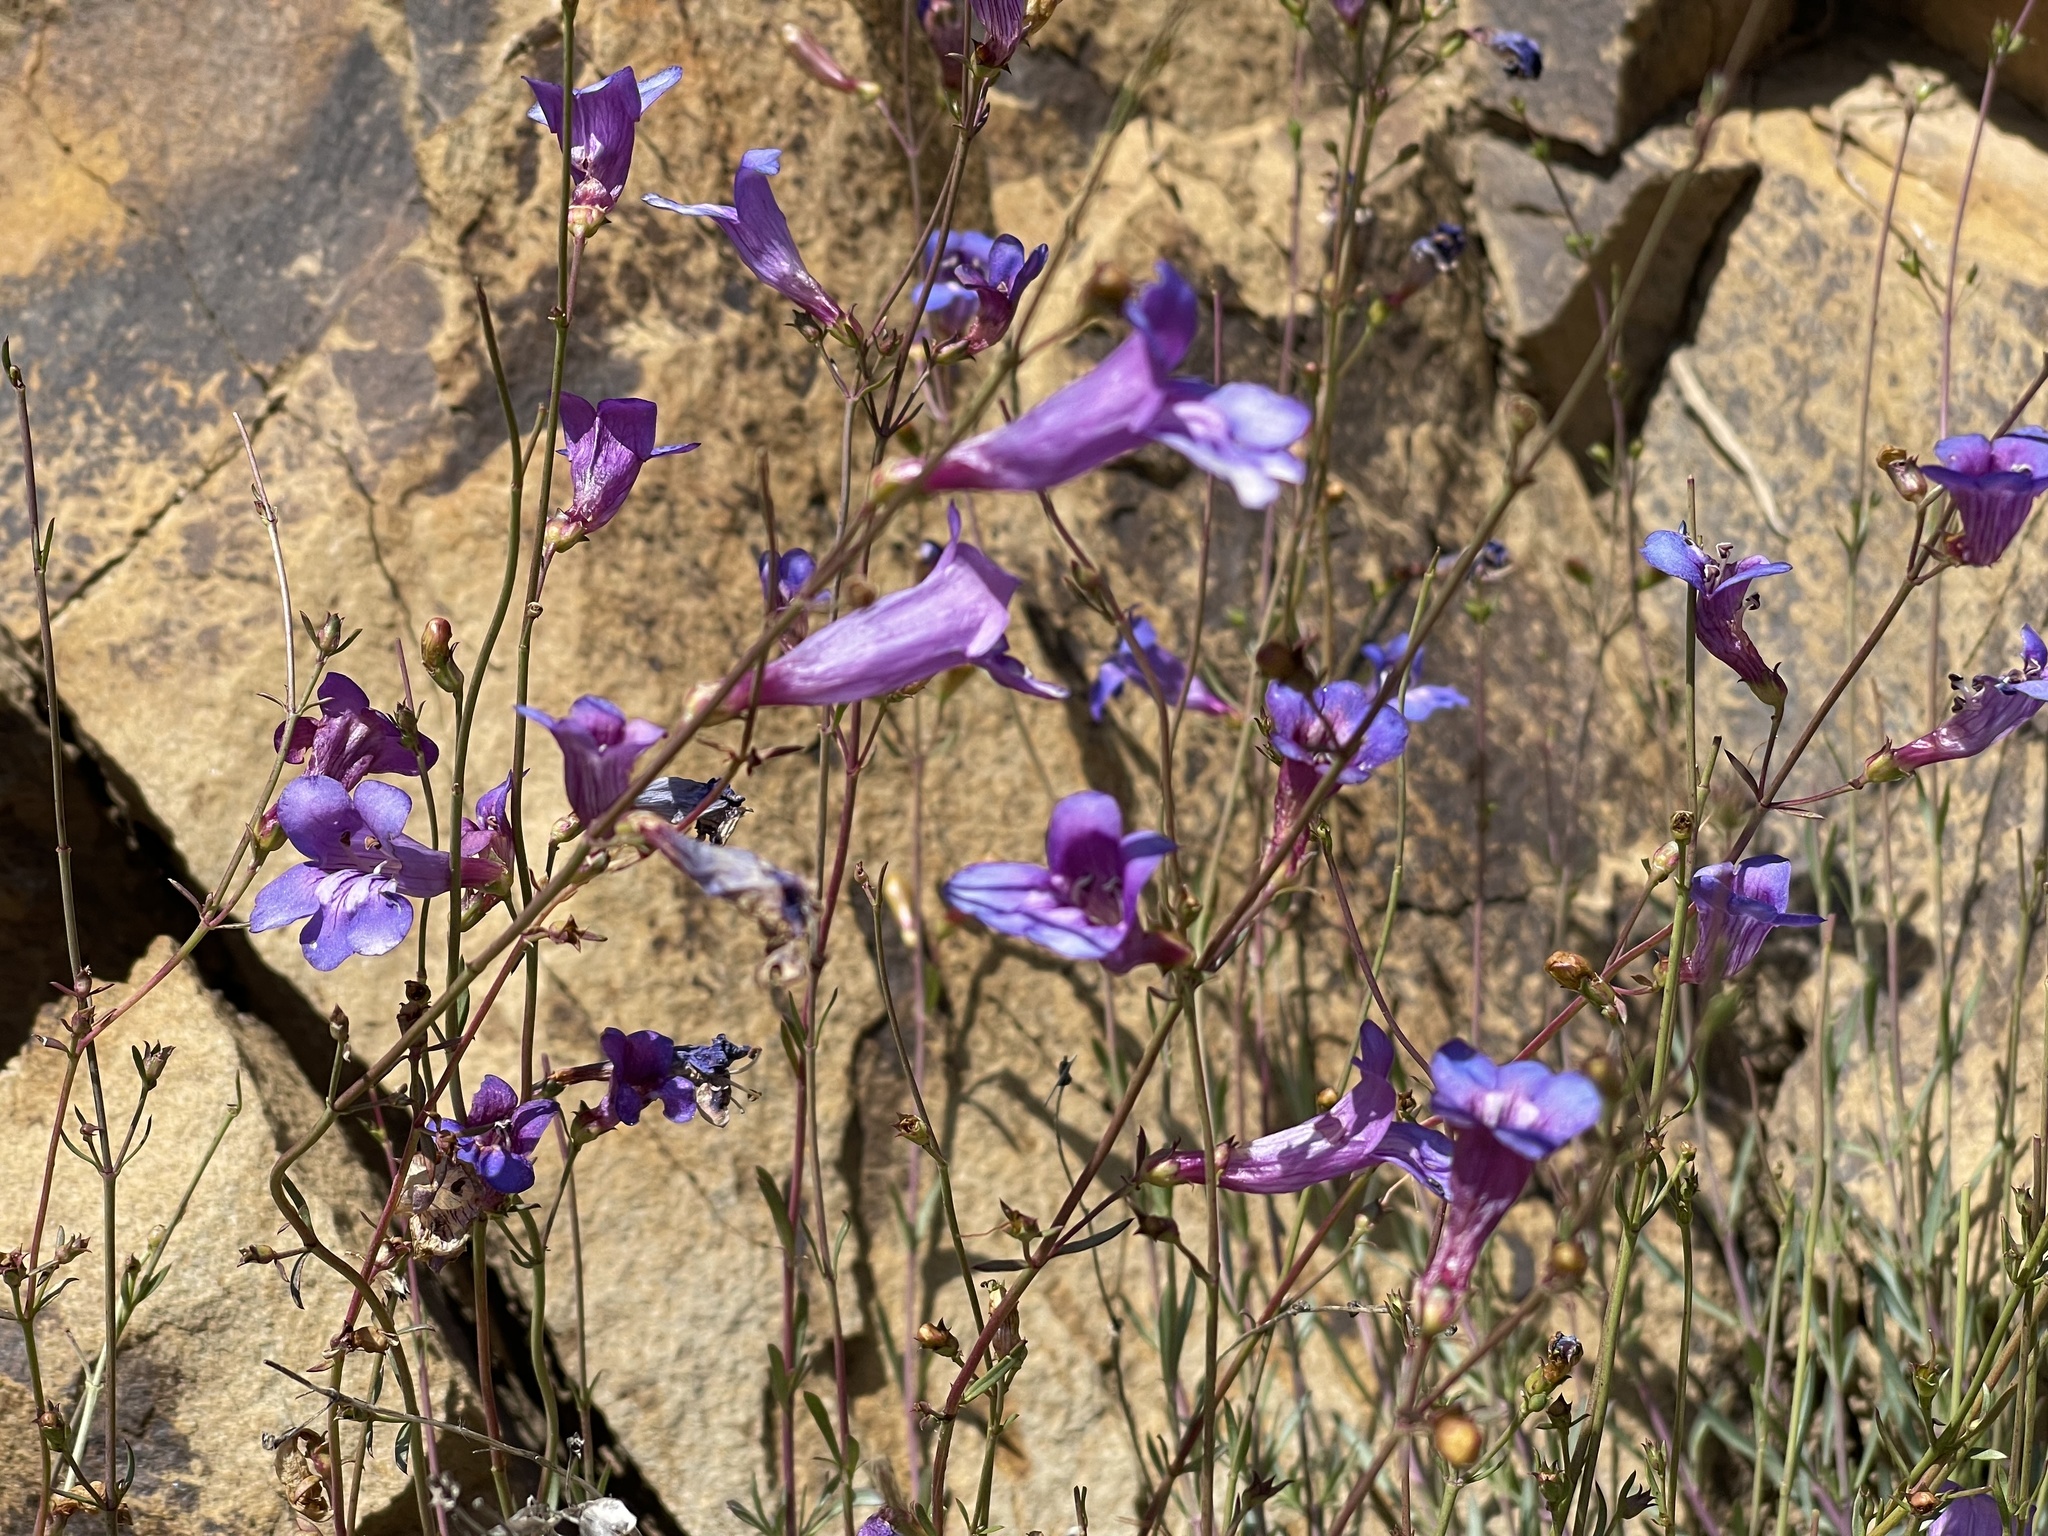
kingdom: Plantae
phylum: Tracheophyta
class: Magnoliopsida
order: Lamiales
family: Plantaginaceae
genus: Penstemon
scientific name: Penstemon heterophyllus
